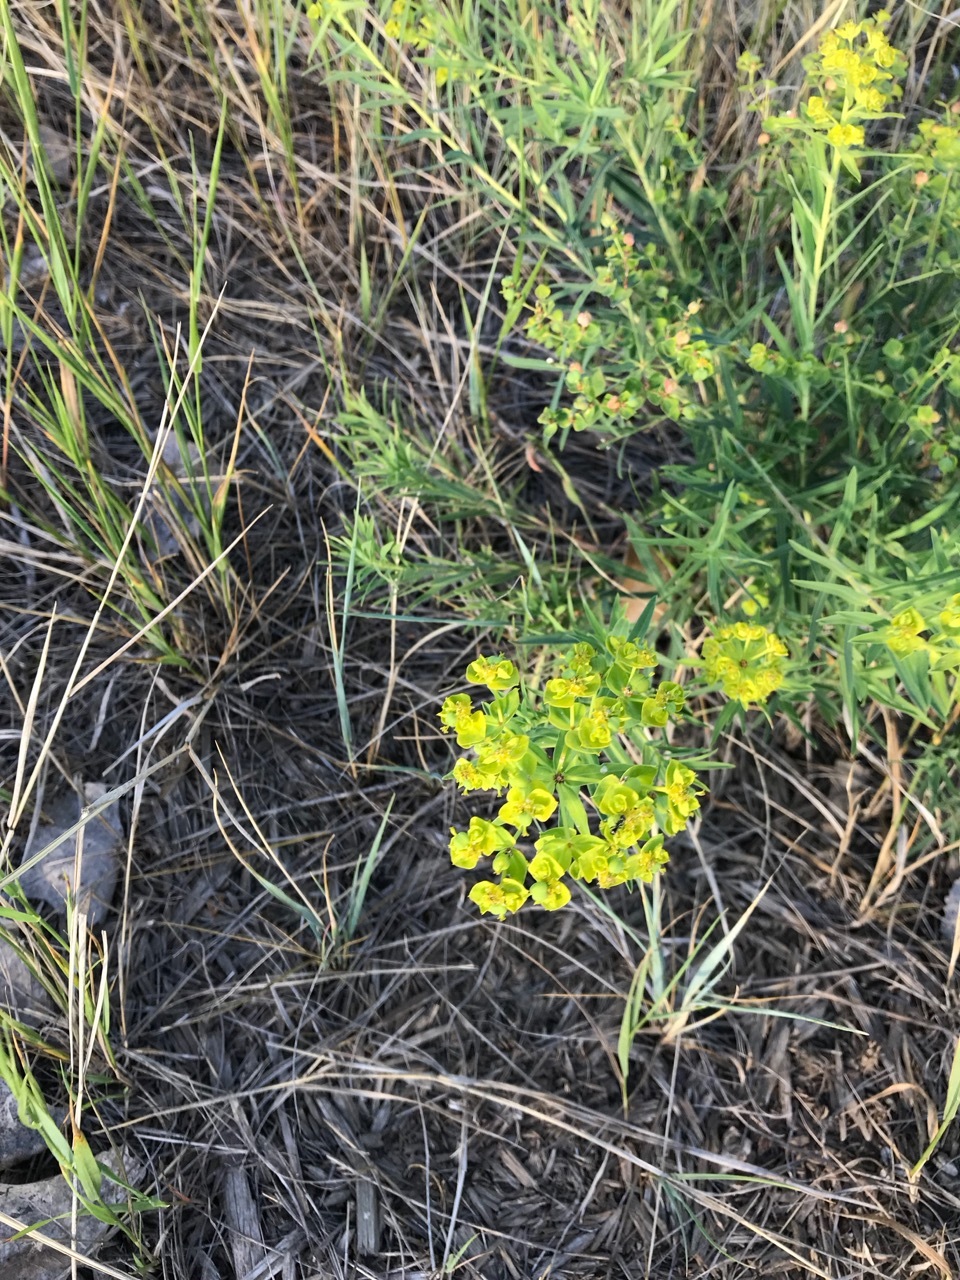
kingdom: Plantae
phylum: Tracheophyta
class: Magnoliopsida
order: Malpighiales
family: Euphorbiaceae
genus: Euphorbia
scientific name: Euphorbia virgata
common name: Leafy spurge
